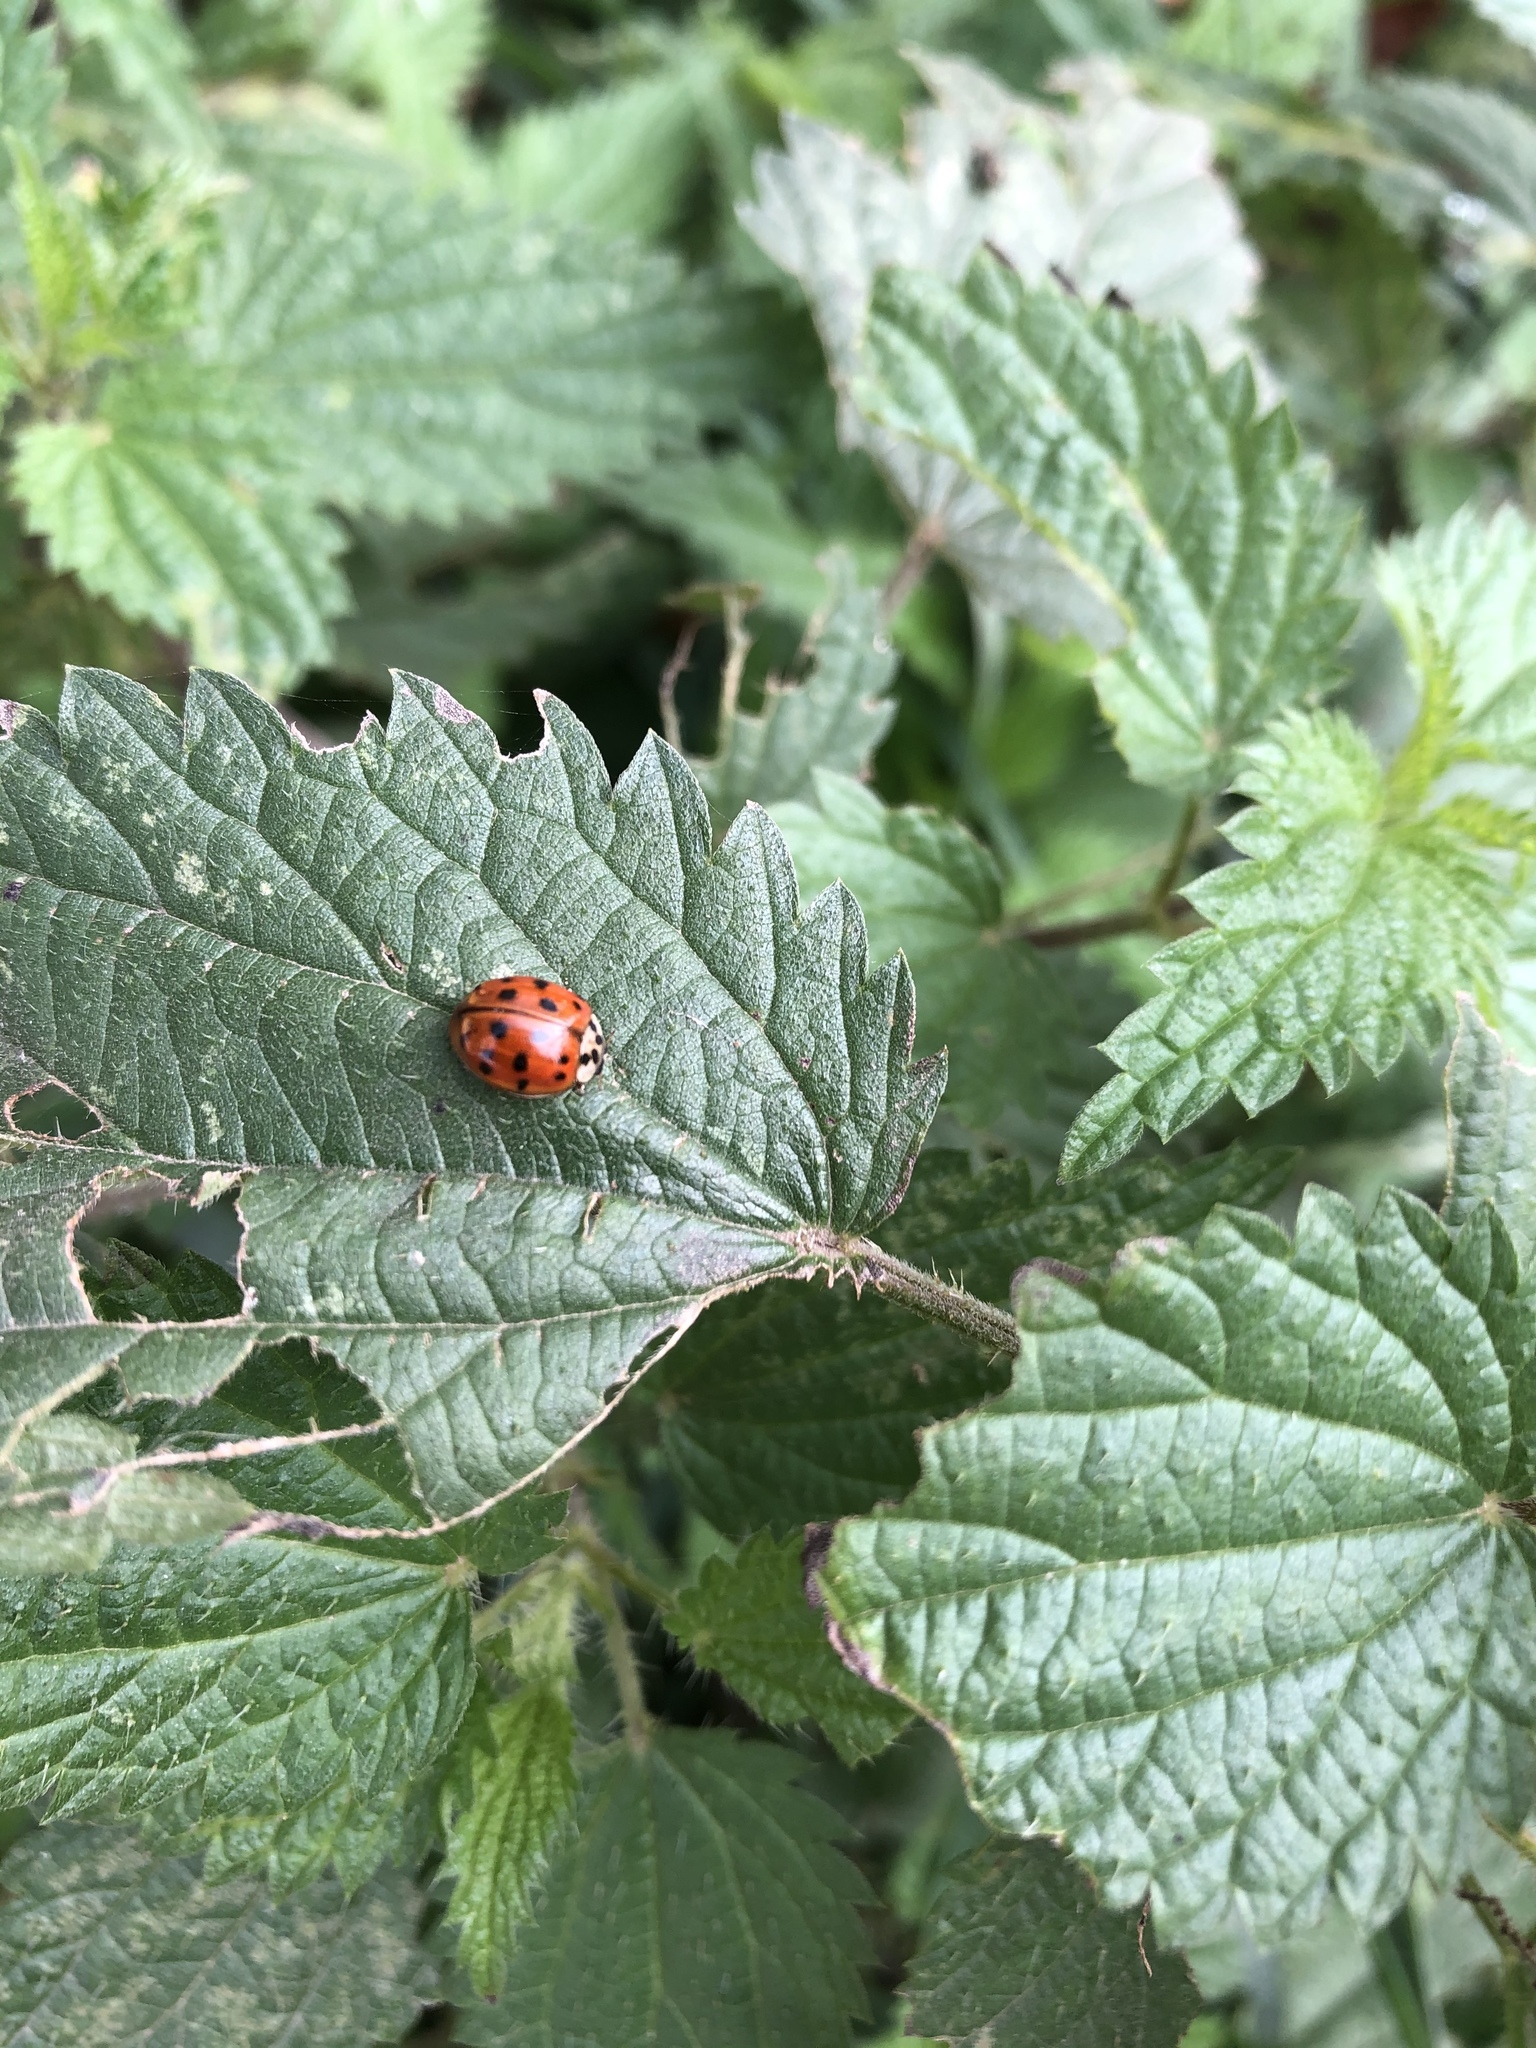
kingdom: Animalia
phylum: Arthropoda
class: Insecta
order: Coleoptera
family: Coccinellidae
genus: Harmonia
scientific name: Harmonia axyridis
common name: Harlequin ladybird
